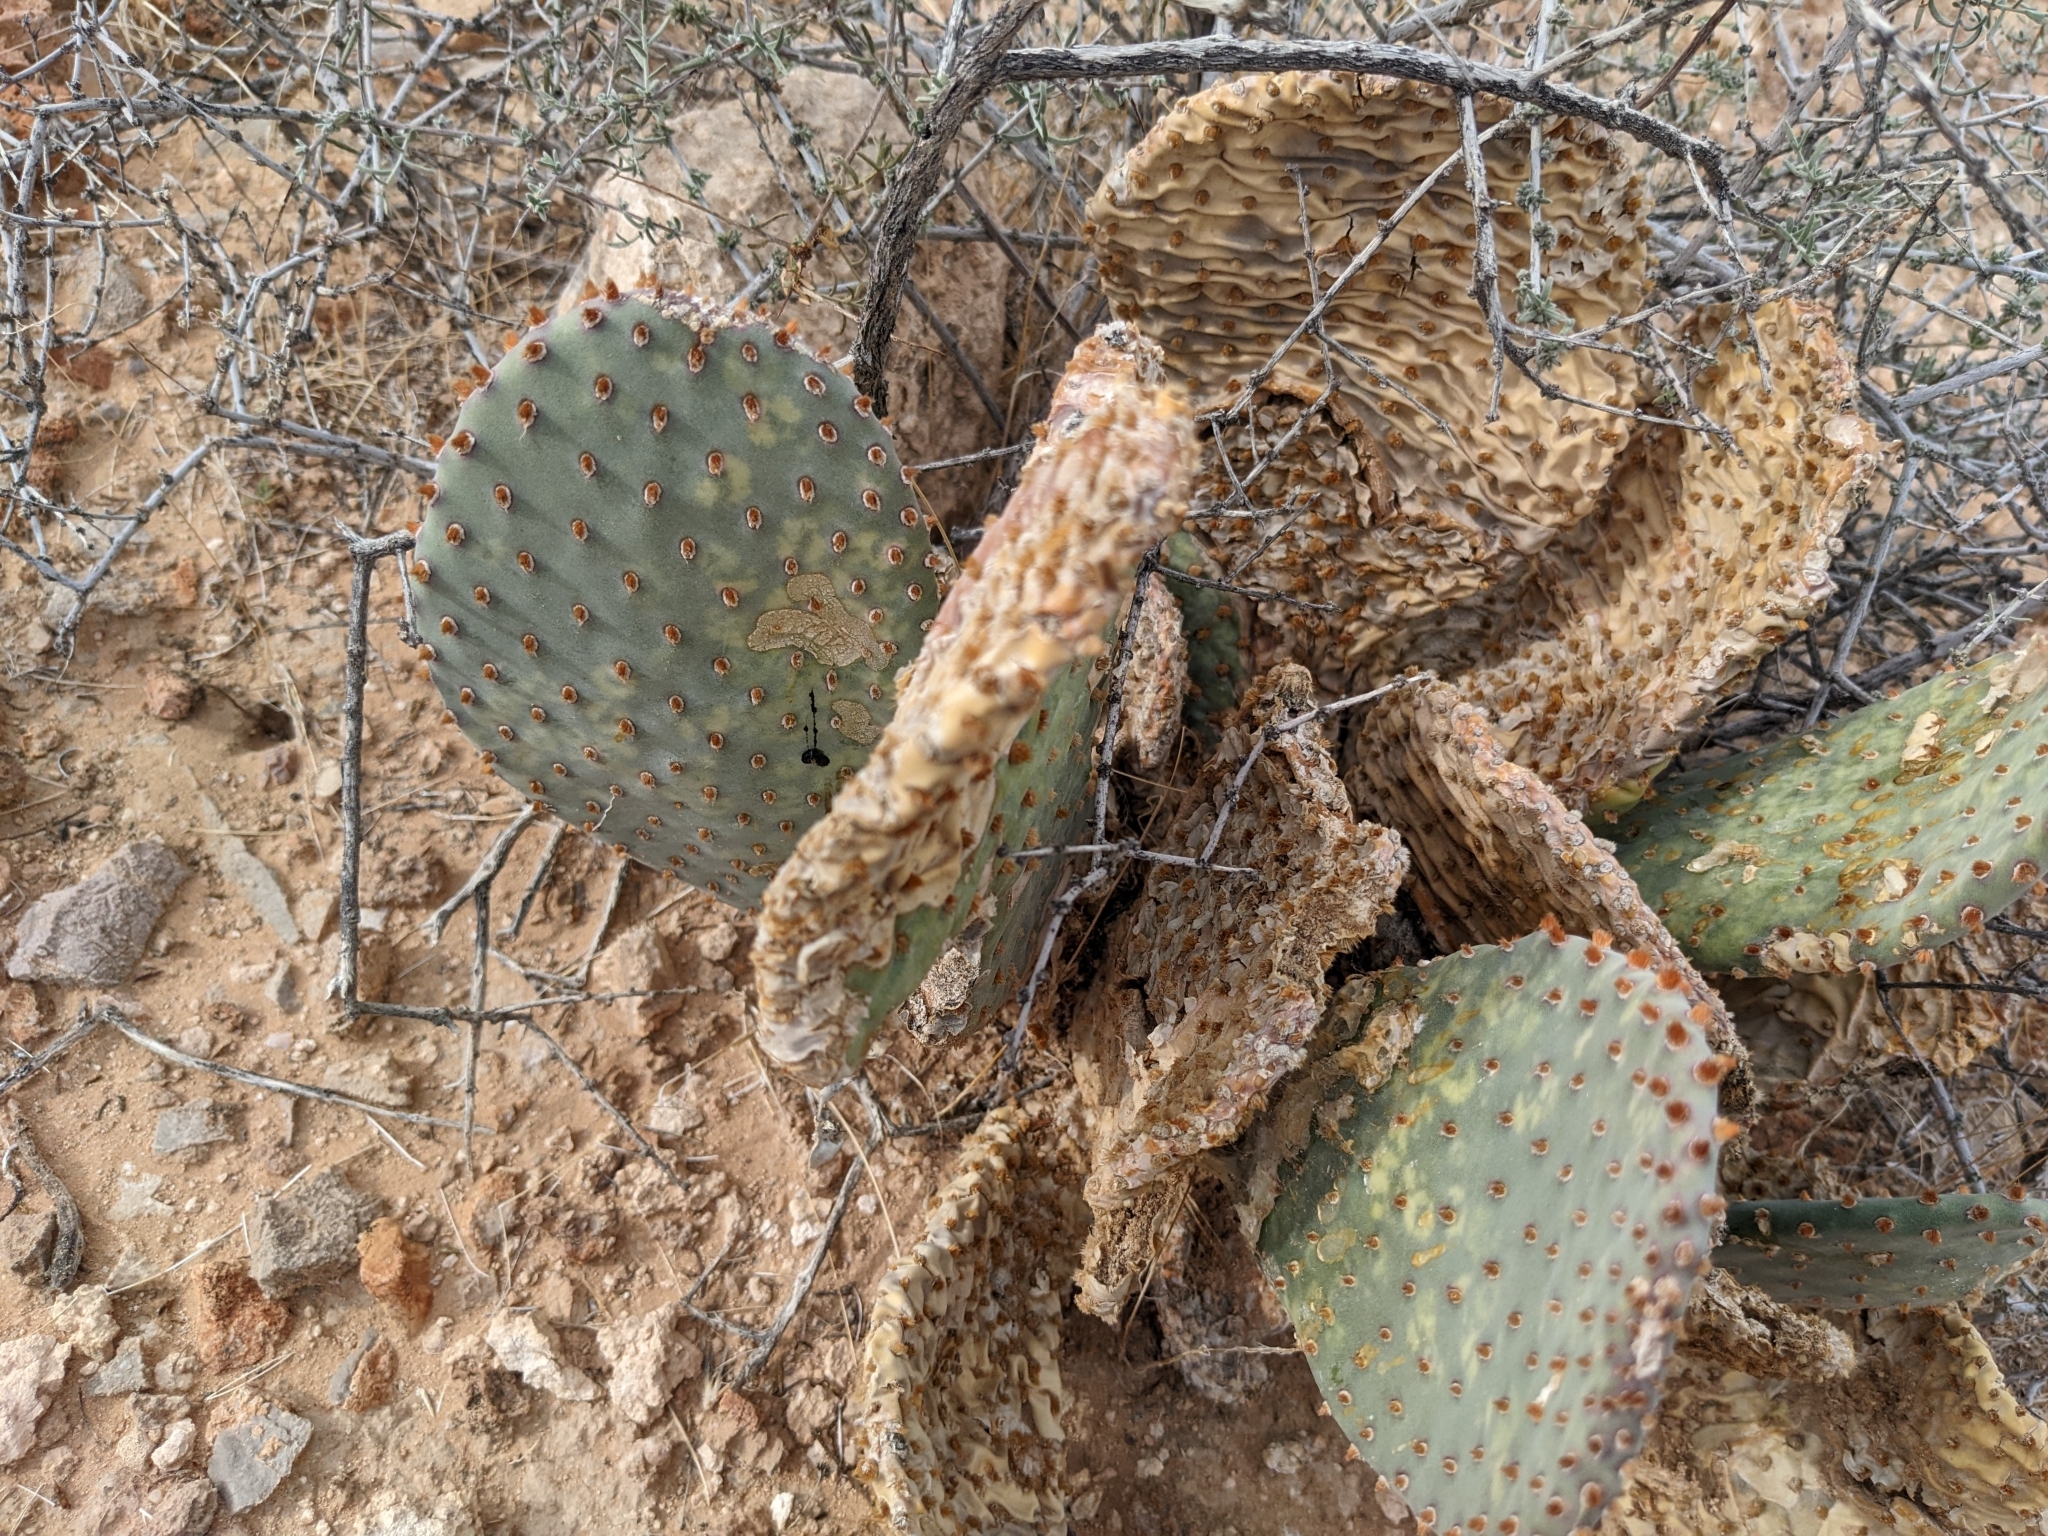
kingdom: Plantae
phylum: Tracheophyta
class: Magnoliopsida
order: Caryophyllales
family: Cactaceae
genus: Opuntia
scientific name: Opuntia basilaris
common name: Beavertail prickly-pear
